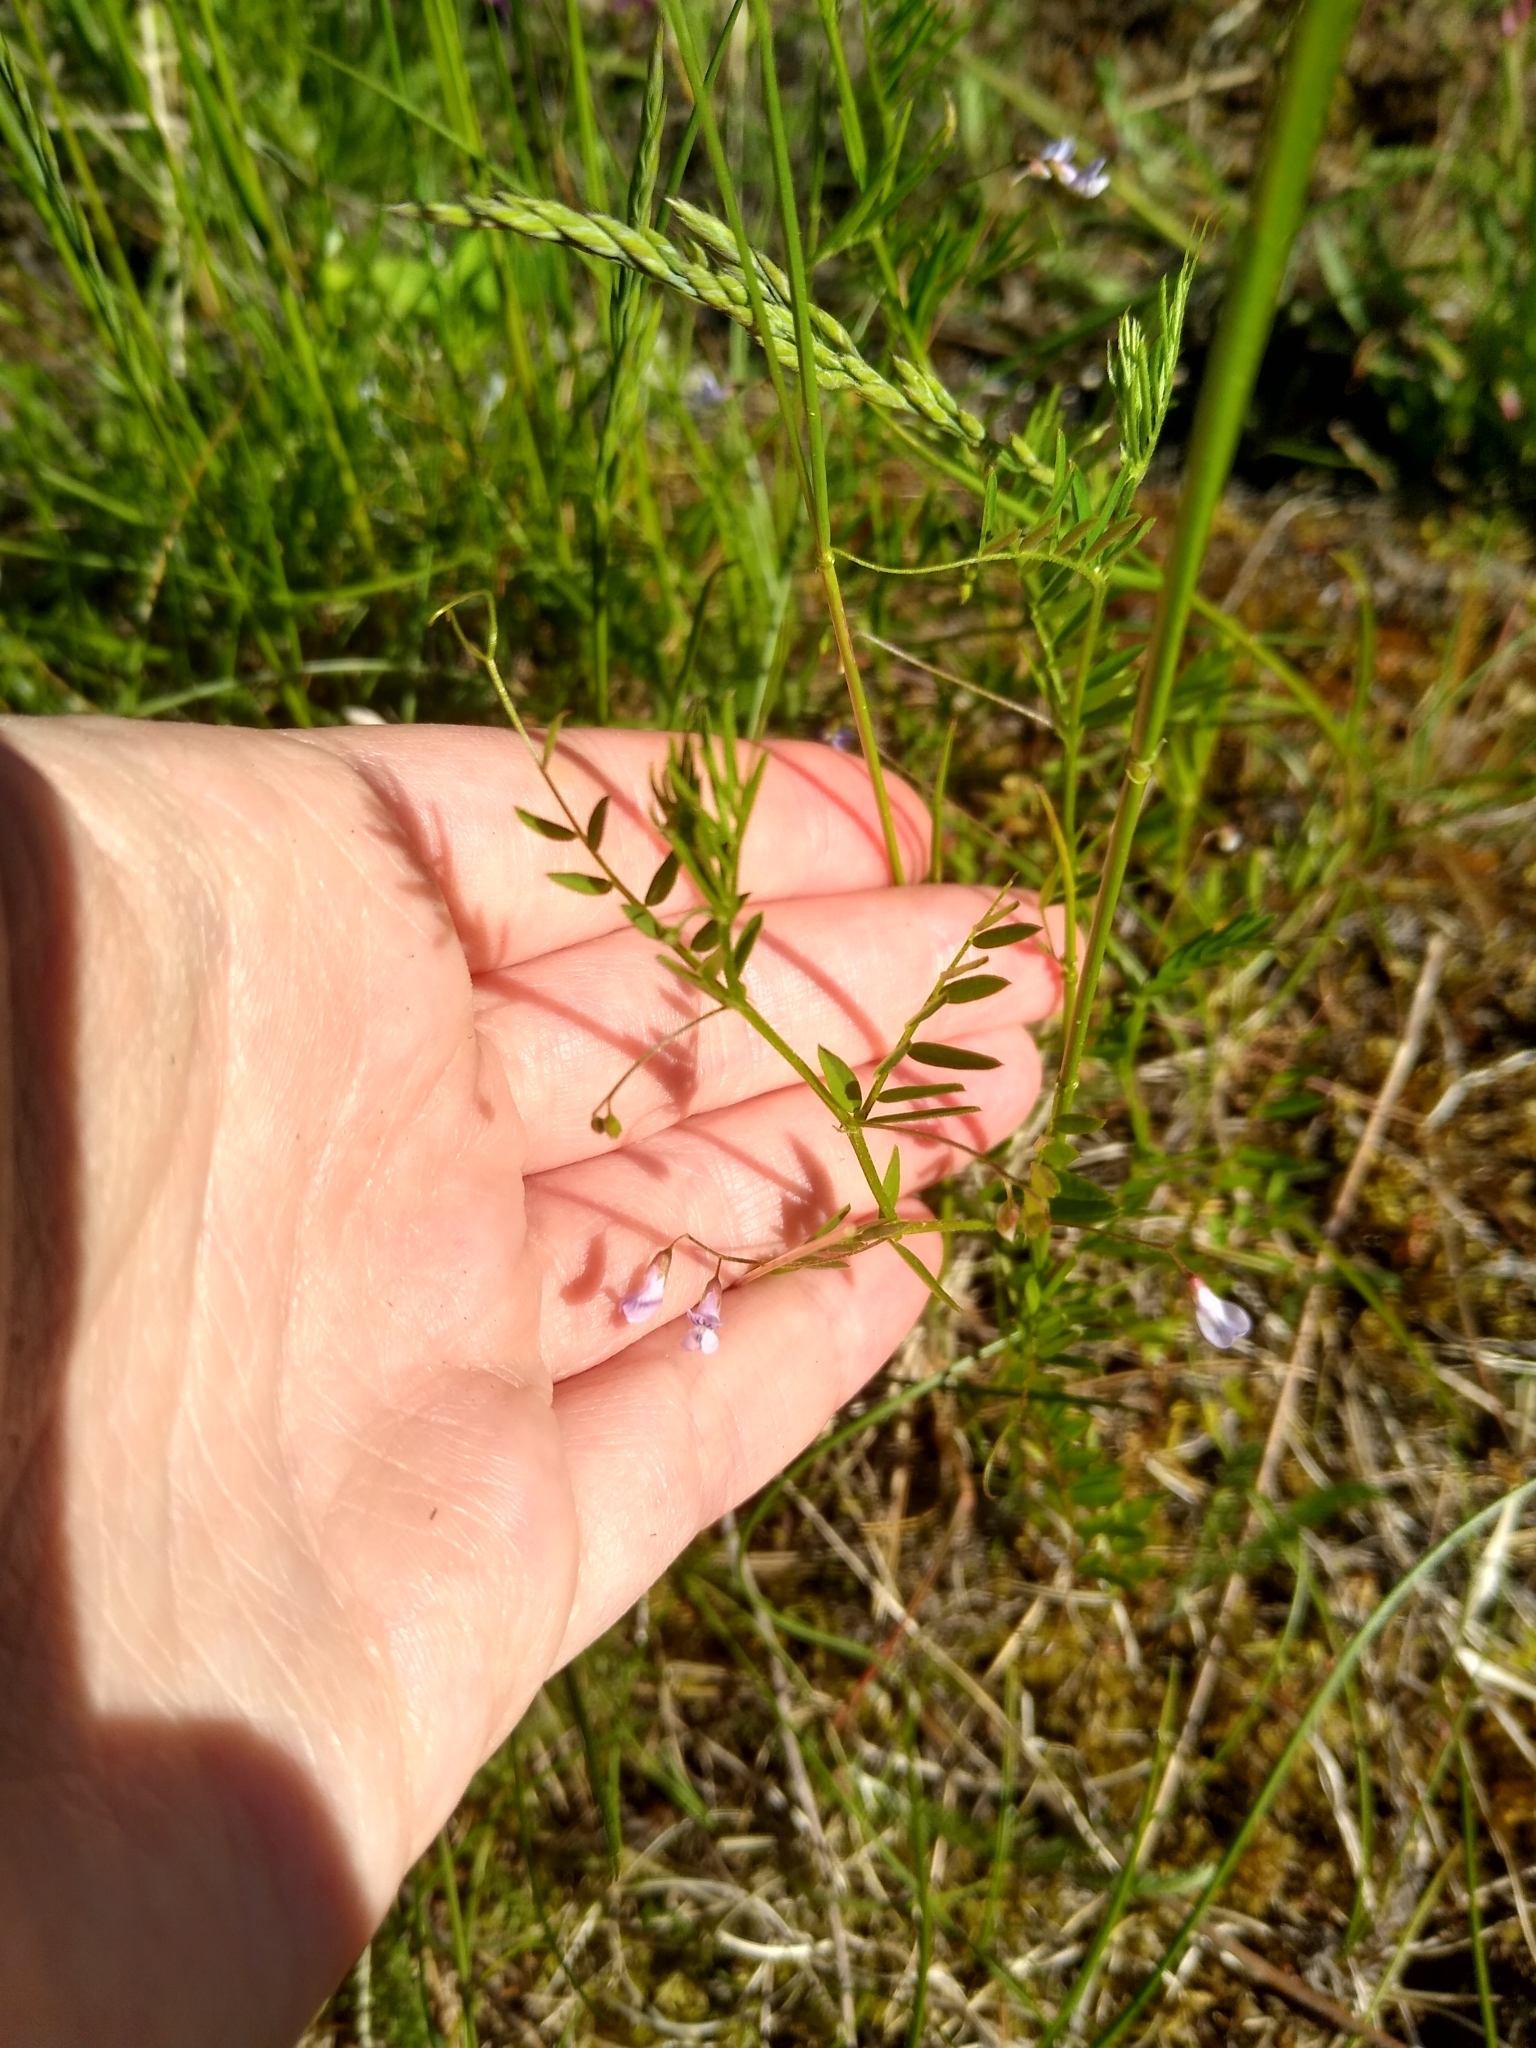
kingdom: Plantae
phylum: Tracheophyta
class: Magnoliopsida
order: Fabales
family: Fabaceae
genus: Vicia
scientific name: Vicia tetrasperma
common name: Smooth tare
